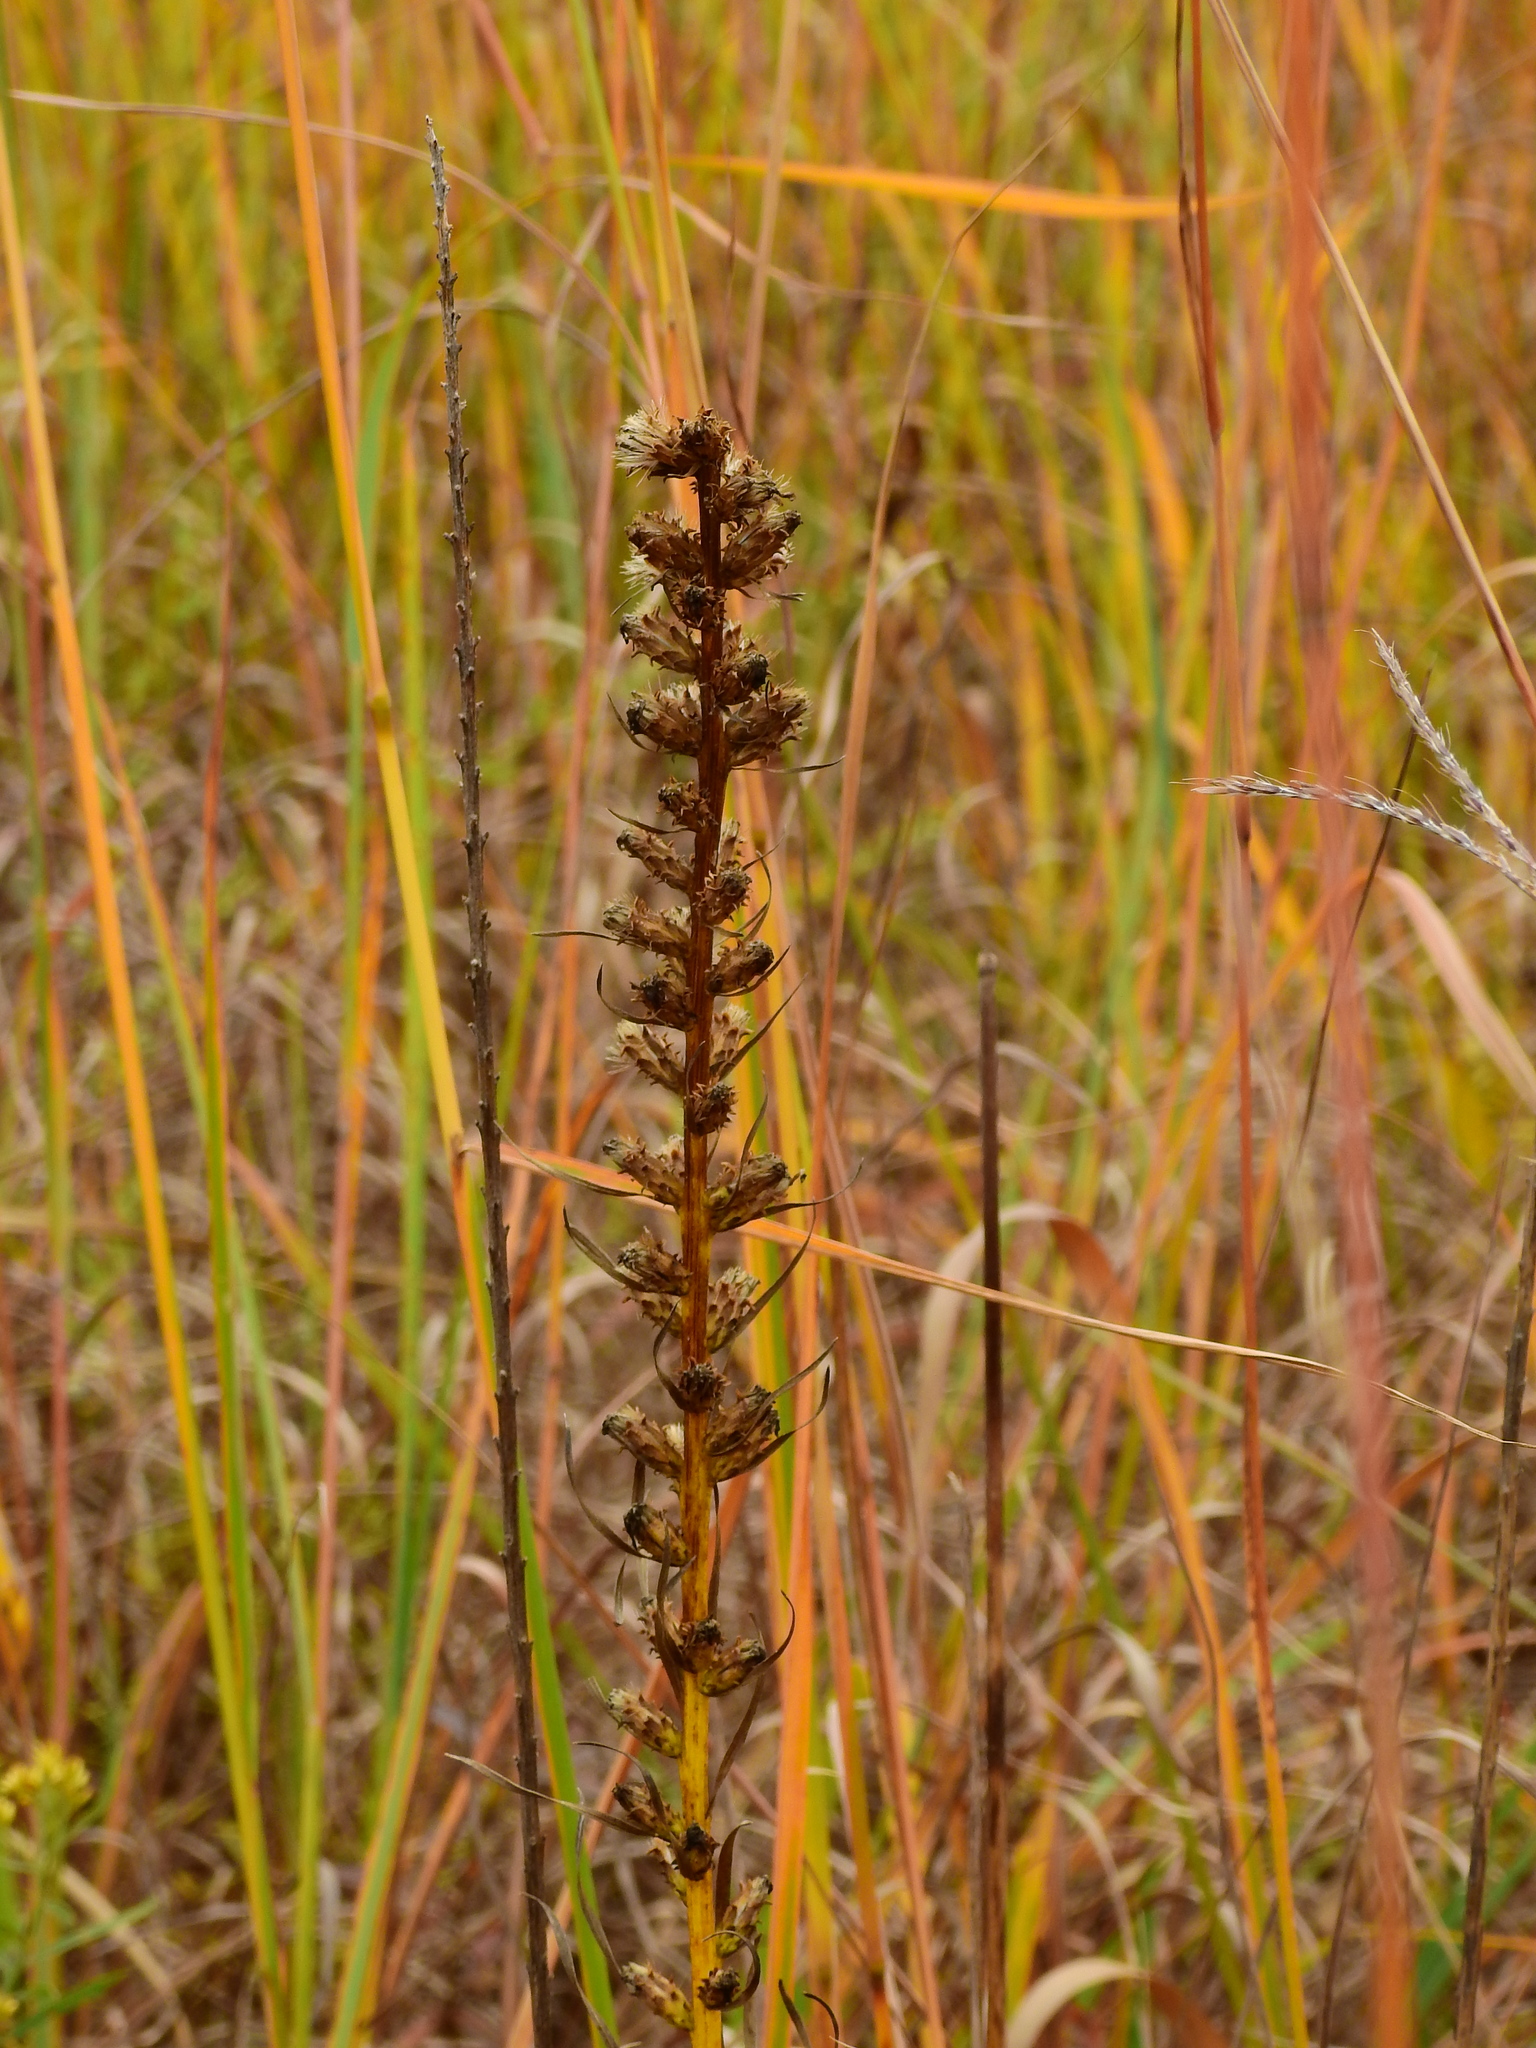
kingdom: Plantae
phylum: Tracheophyta
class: Magnoliopsida
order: Asterales
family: Asteraceae
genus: Liatris
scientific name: Liatris pycnostachya
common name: Cattail gayfeather
